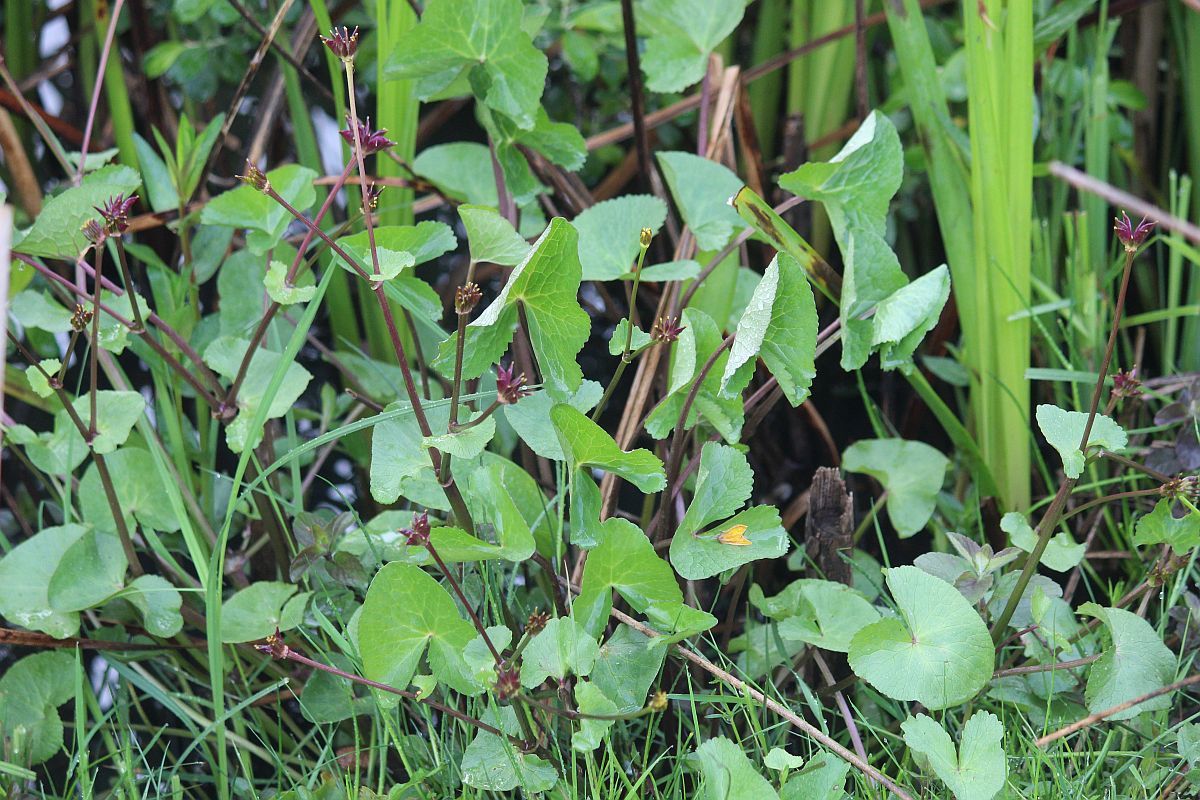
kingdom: Plantae
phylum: Tracheophyta
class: Magnoliopsida
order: Ranunculales
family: Ranunculaceae
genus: Caltha
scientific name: Caltha palustris
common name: Marsh marigold
